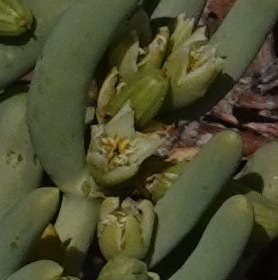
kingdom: Plantae
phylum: Tracheophyta
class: Magnoliopsida
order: Zygophyllales
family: Zygophyllaceae
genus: Augea
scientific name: Augea capensis
